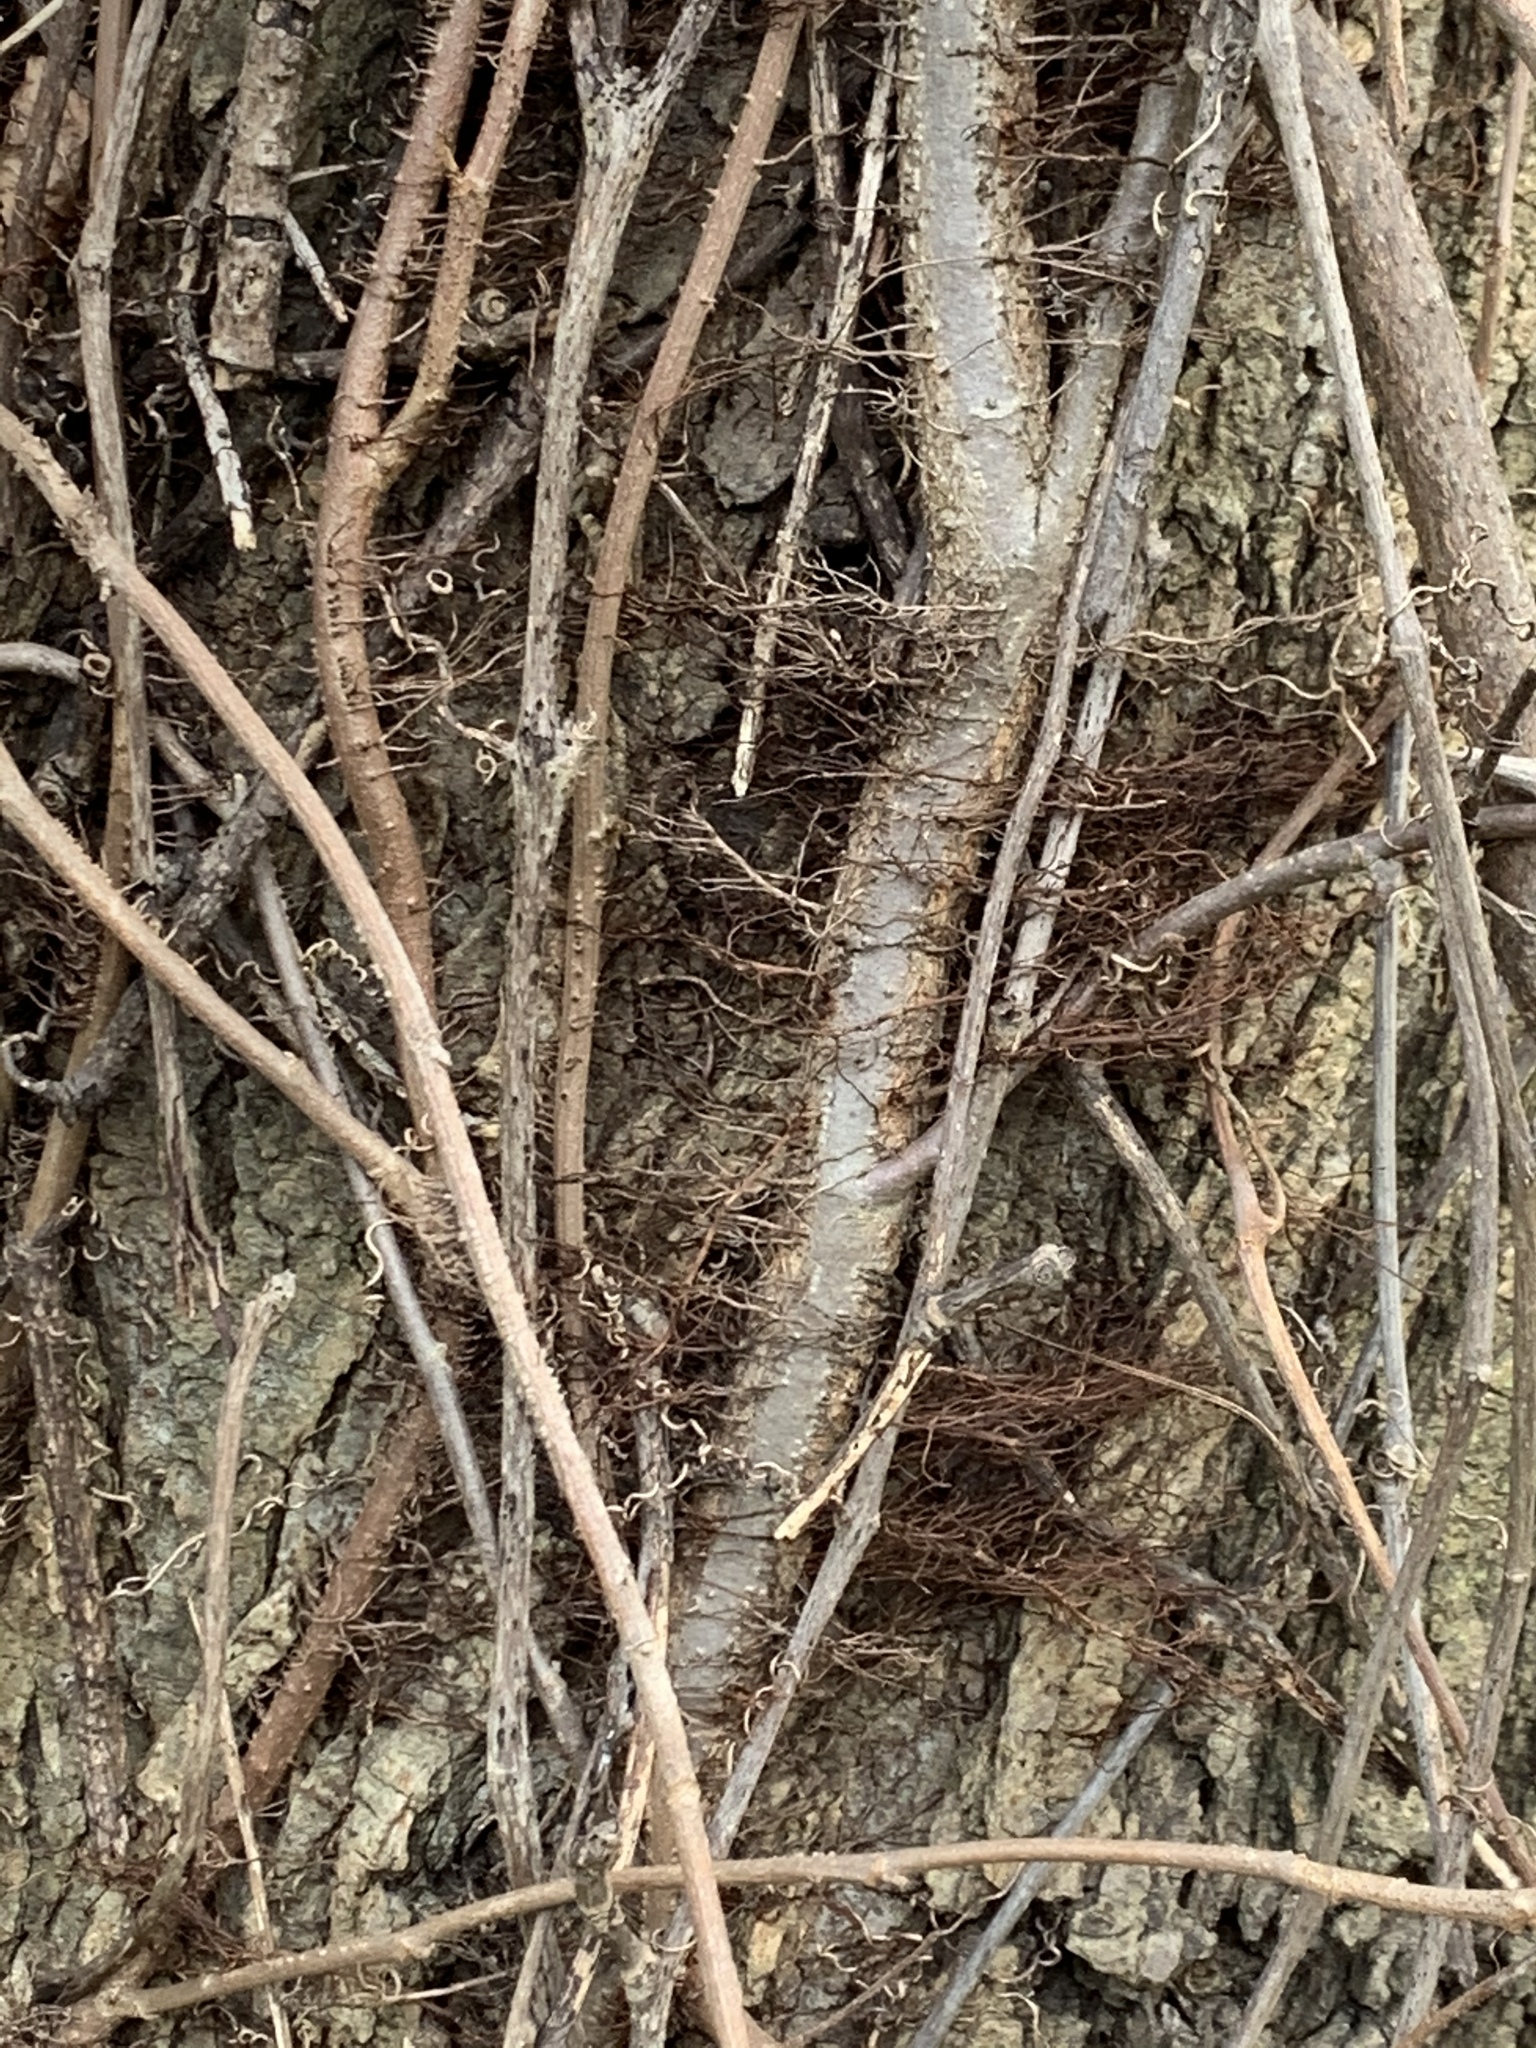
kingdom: Plantae
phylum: Tracheophyta
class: Magnoliopsida
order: Sapindales
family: Anacardiaceae
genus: Toxicodendron
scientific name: Toxicodendron radicans
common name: Poison ivy
